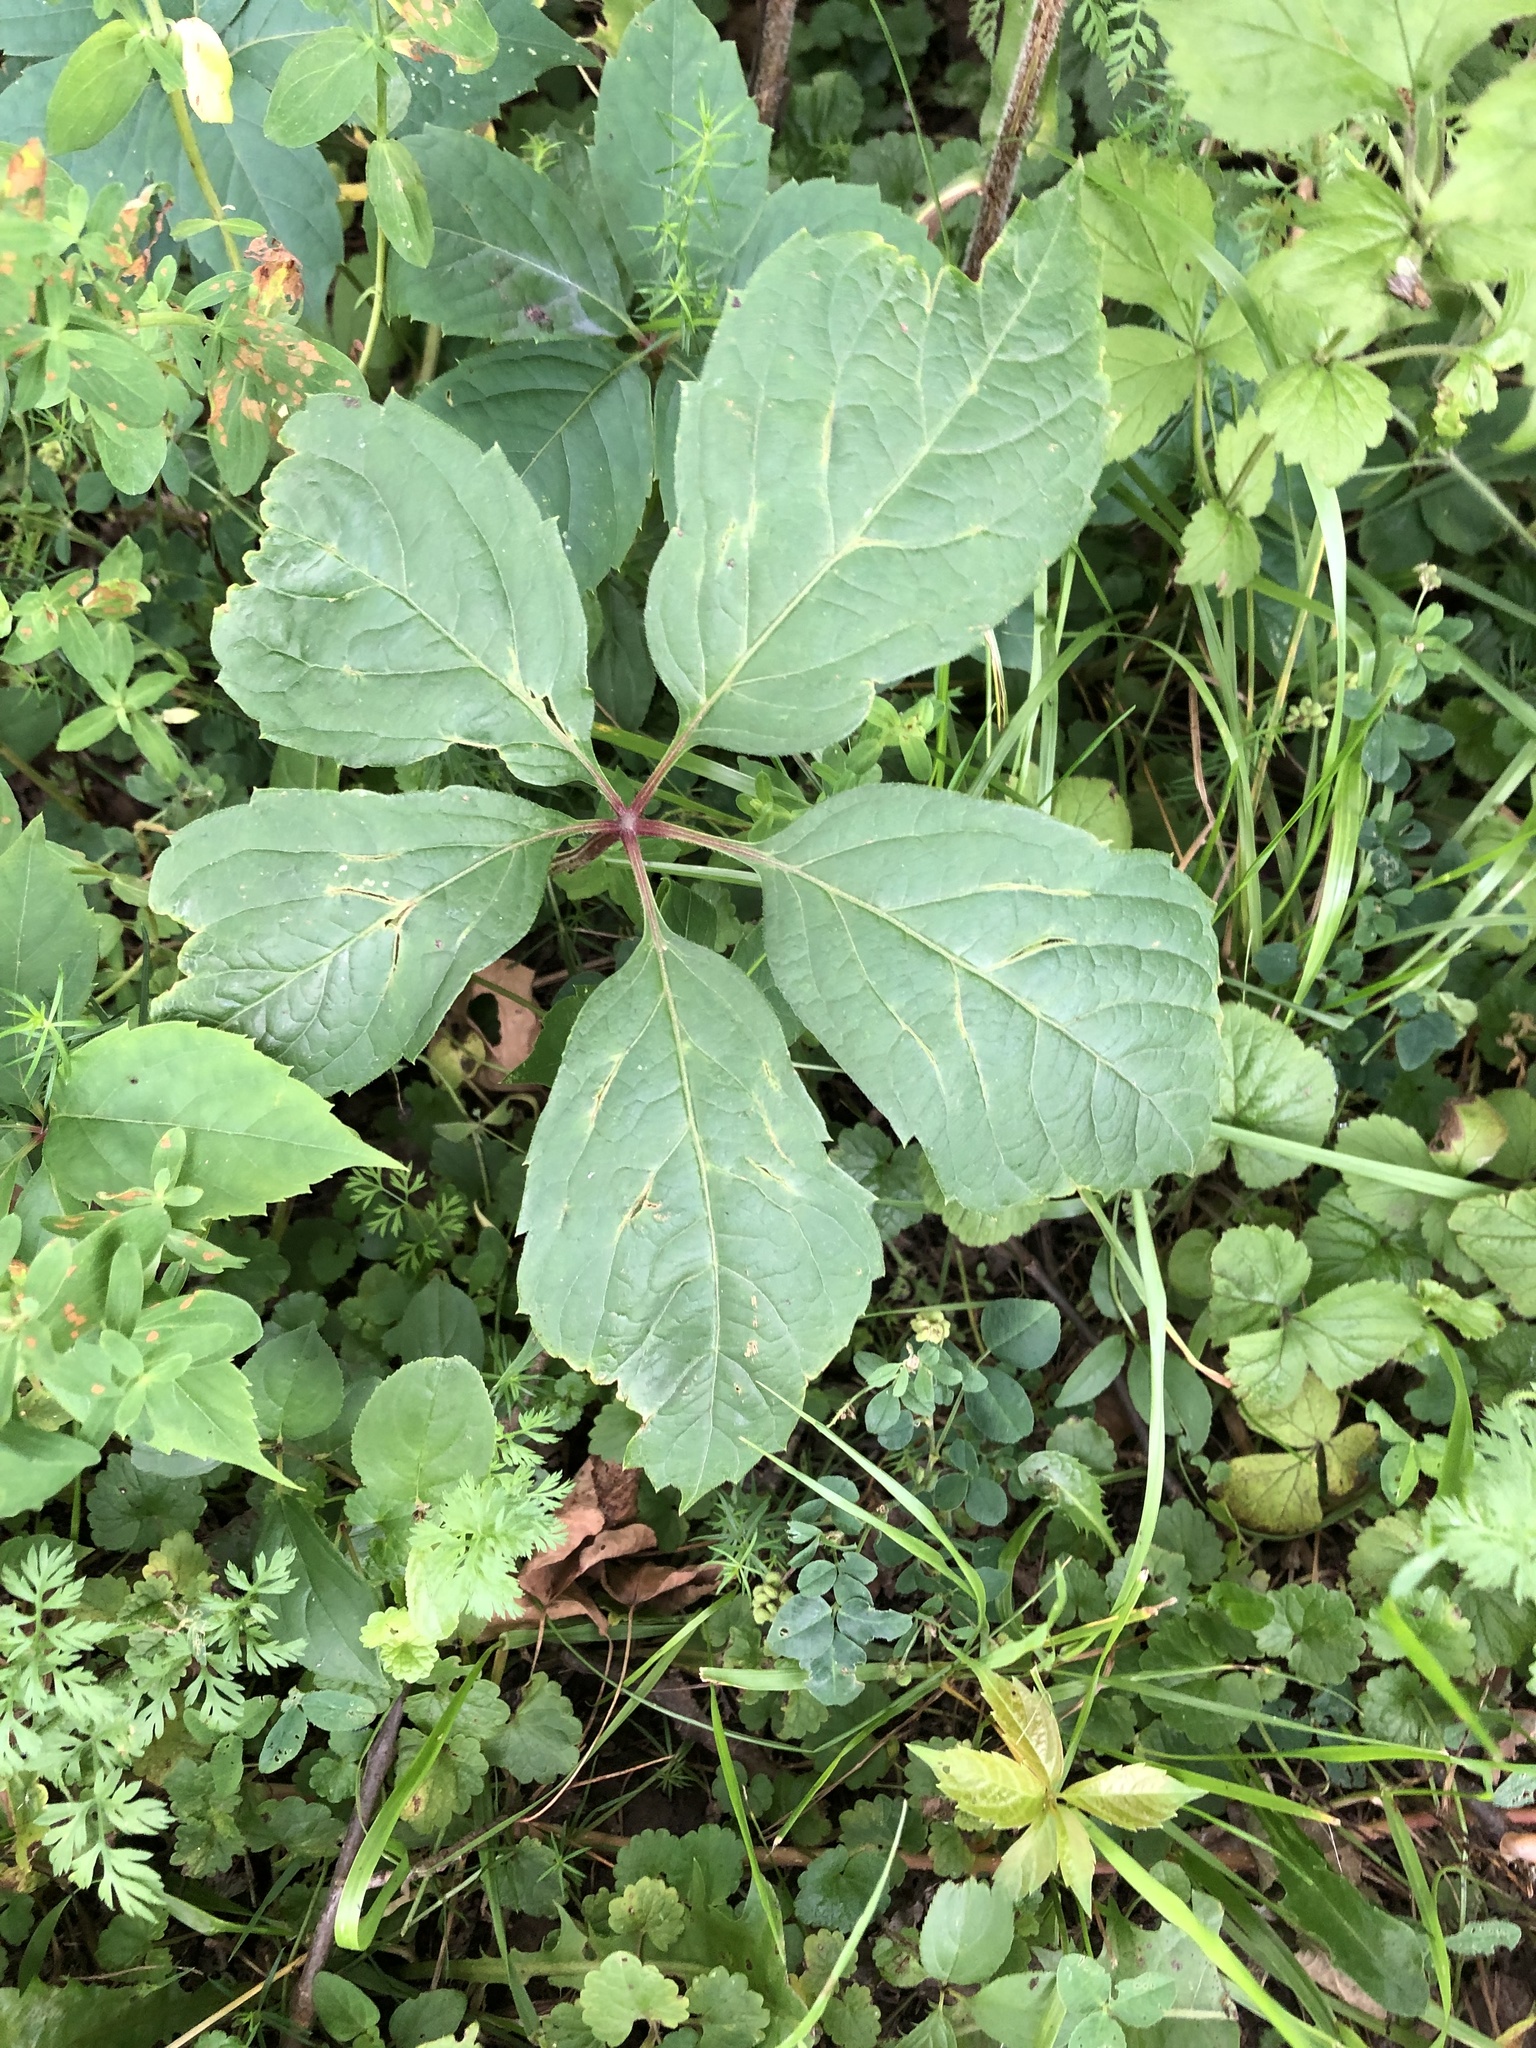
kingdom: Plantae
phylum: Tracheophyta
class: Magnoliopsida
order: Vitales
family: Vitaceae
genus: Parthenocissus
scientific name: Parthenocissus inserta
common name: False virginia-creeper
